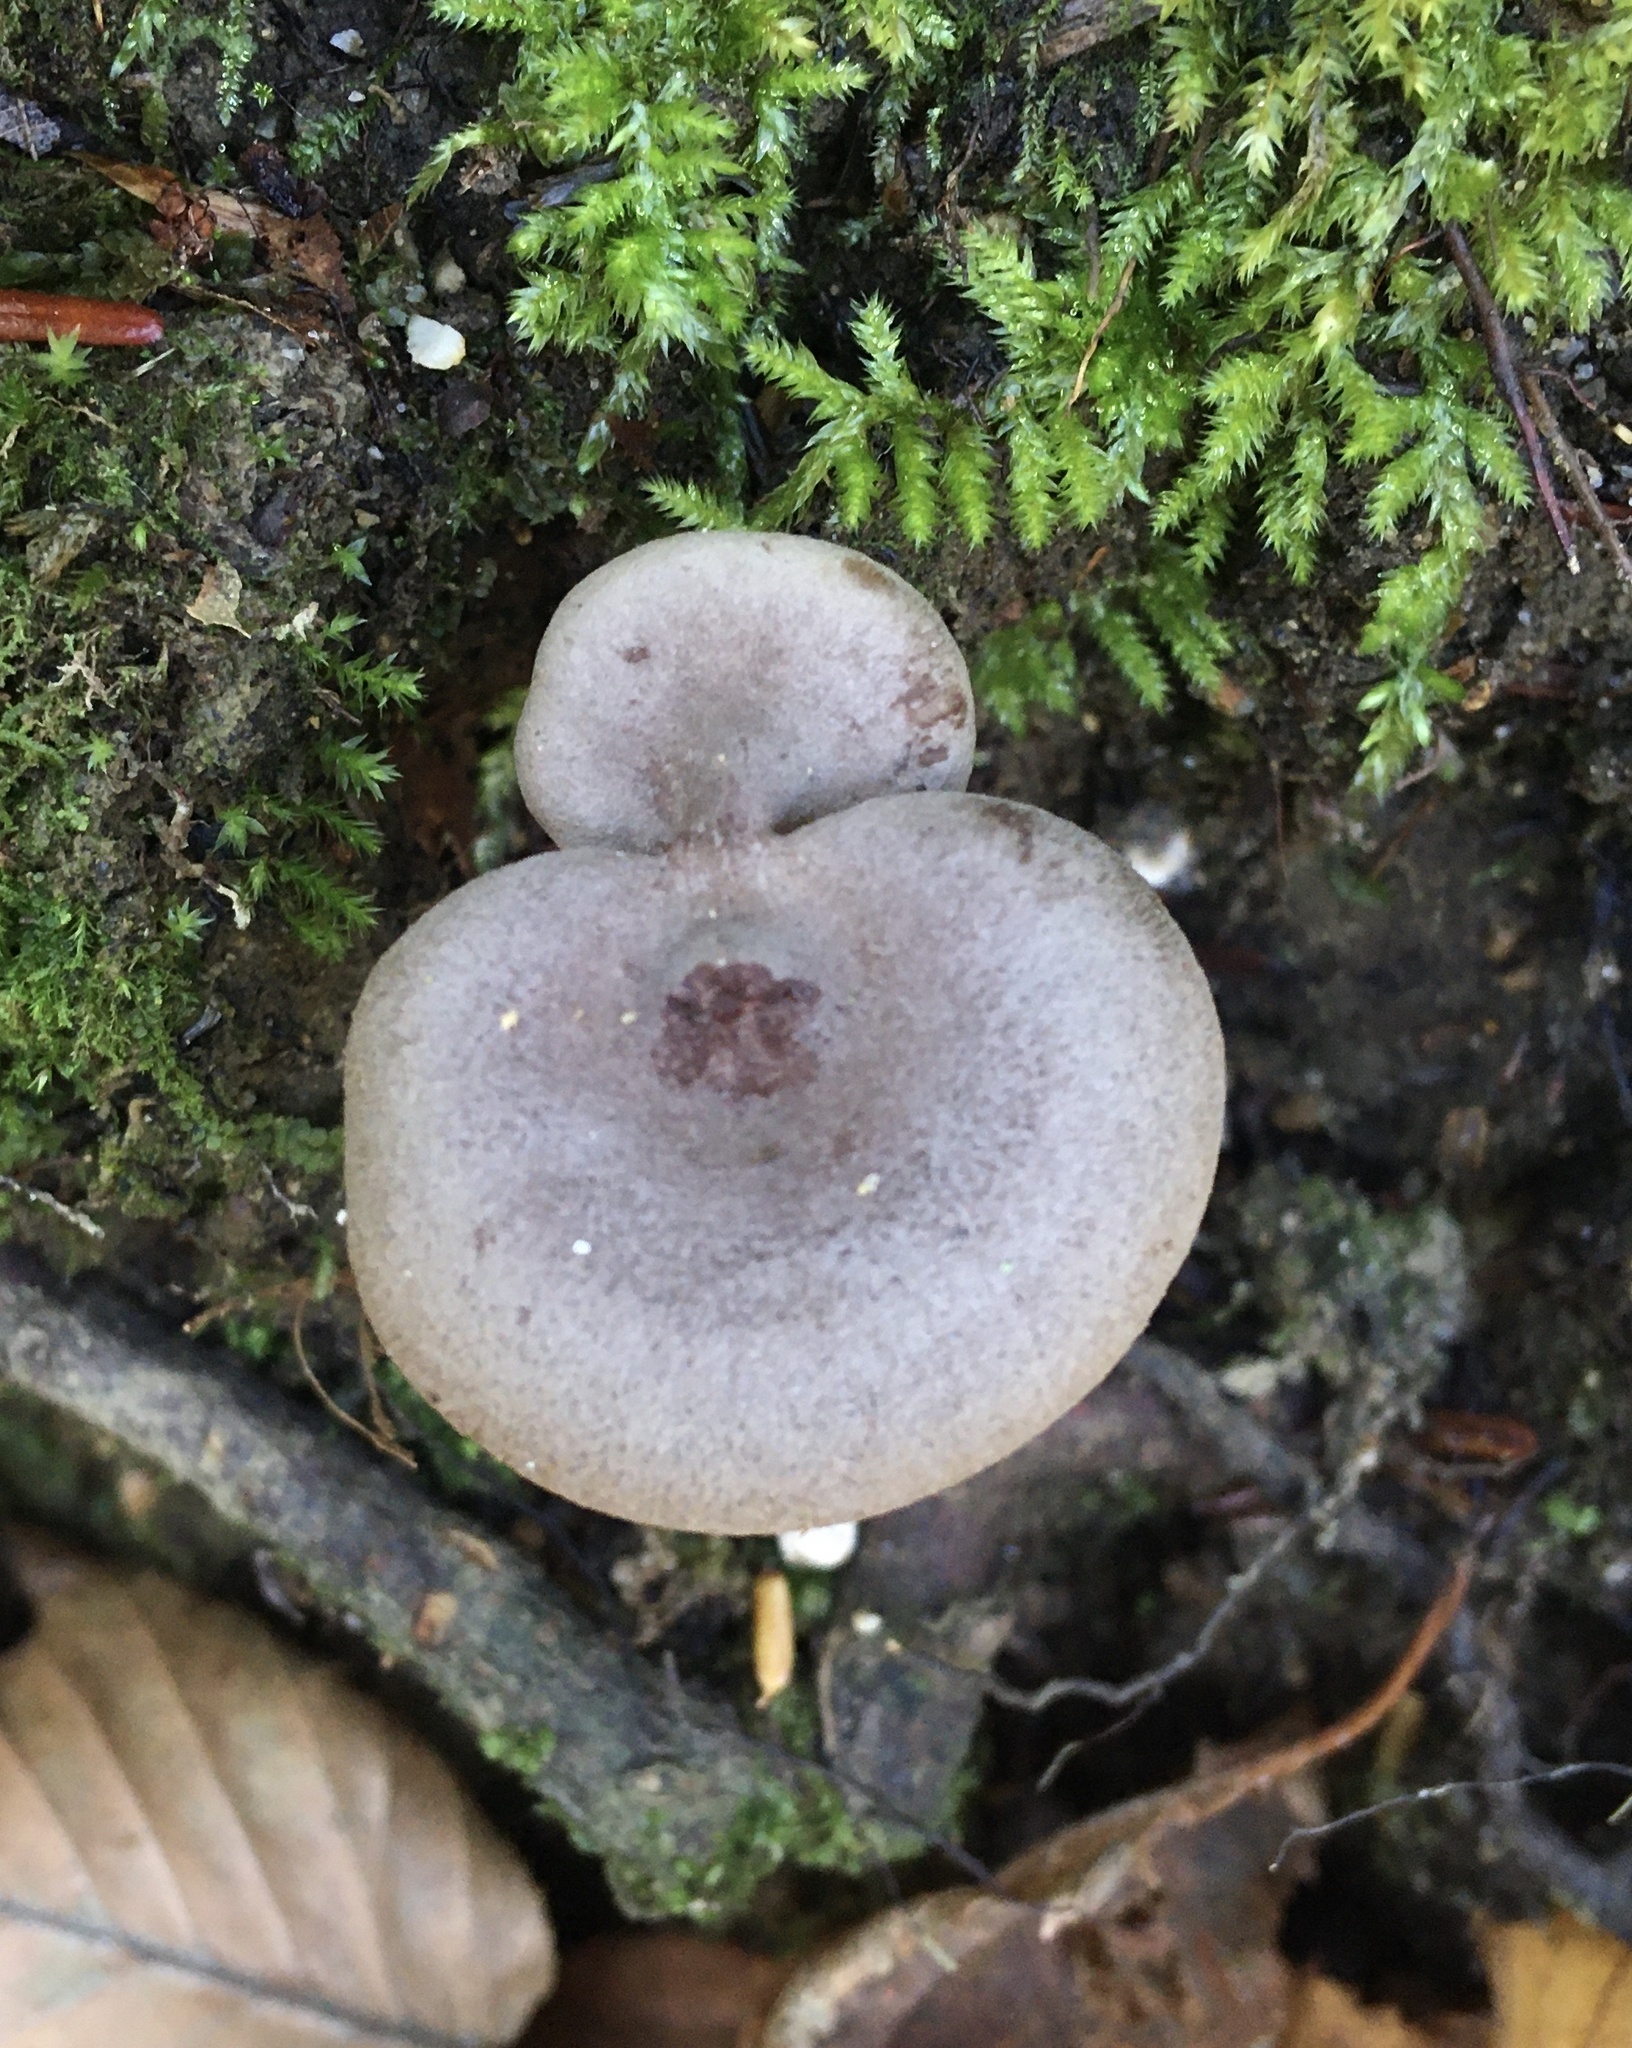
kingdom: Fungi
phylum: Basidiomycota
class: Agaricomycetes
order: Russulales
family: Russulaceae
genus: Lactarius
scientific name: Lactarius mammosus
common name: Pap milkcap
